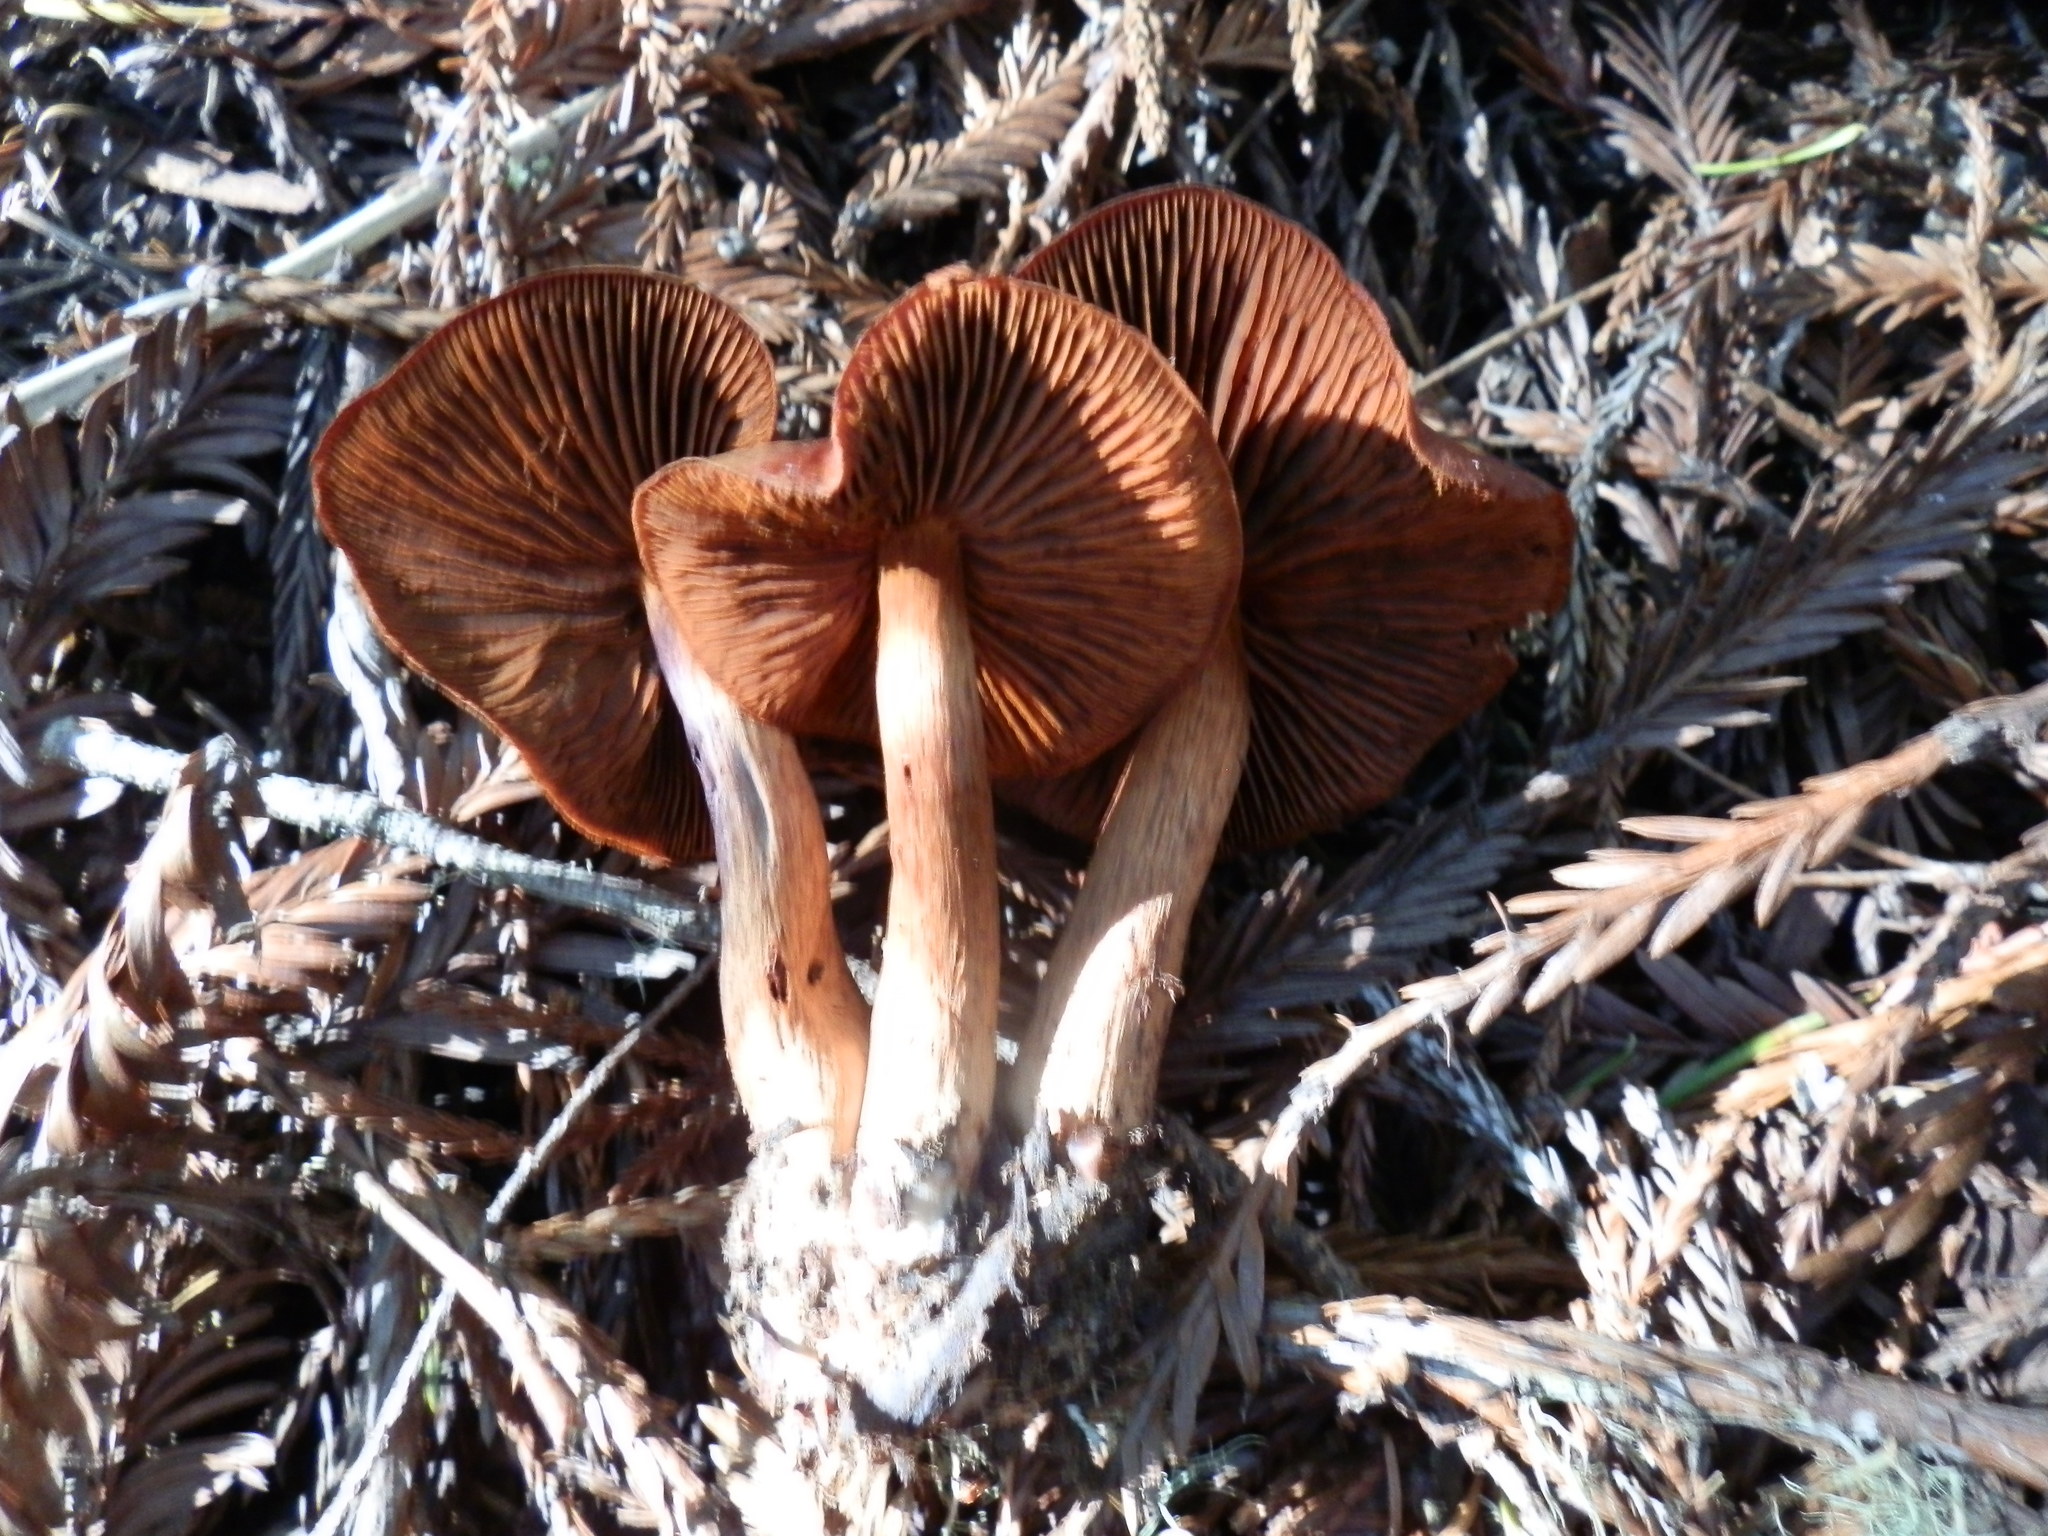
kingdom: Fungi
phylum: Basidiomycota
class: Agaricomycetes
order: Agaricales
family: Cortinariaceae
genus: Cortinarius
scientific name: Cortinarius smithii
